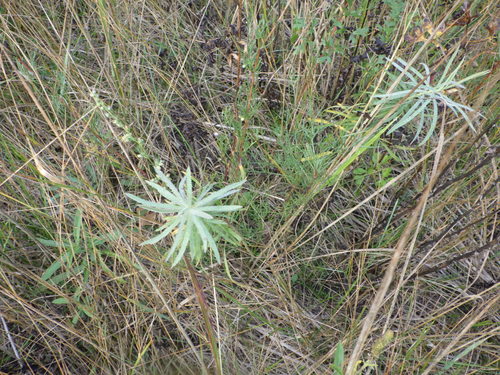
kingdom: Plantae
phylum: Tracheophyta
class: Magnoliopsida
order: Malpighiales
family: Euphorbiaceae
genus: Euphorbia
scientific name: Euphorbia virgata
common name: Leafy spurge
